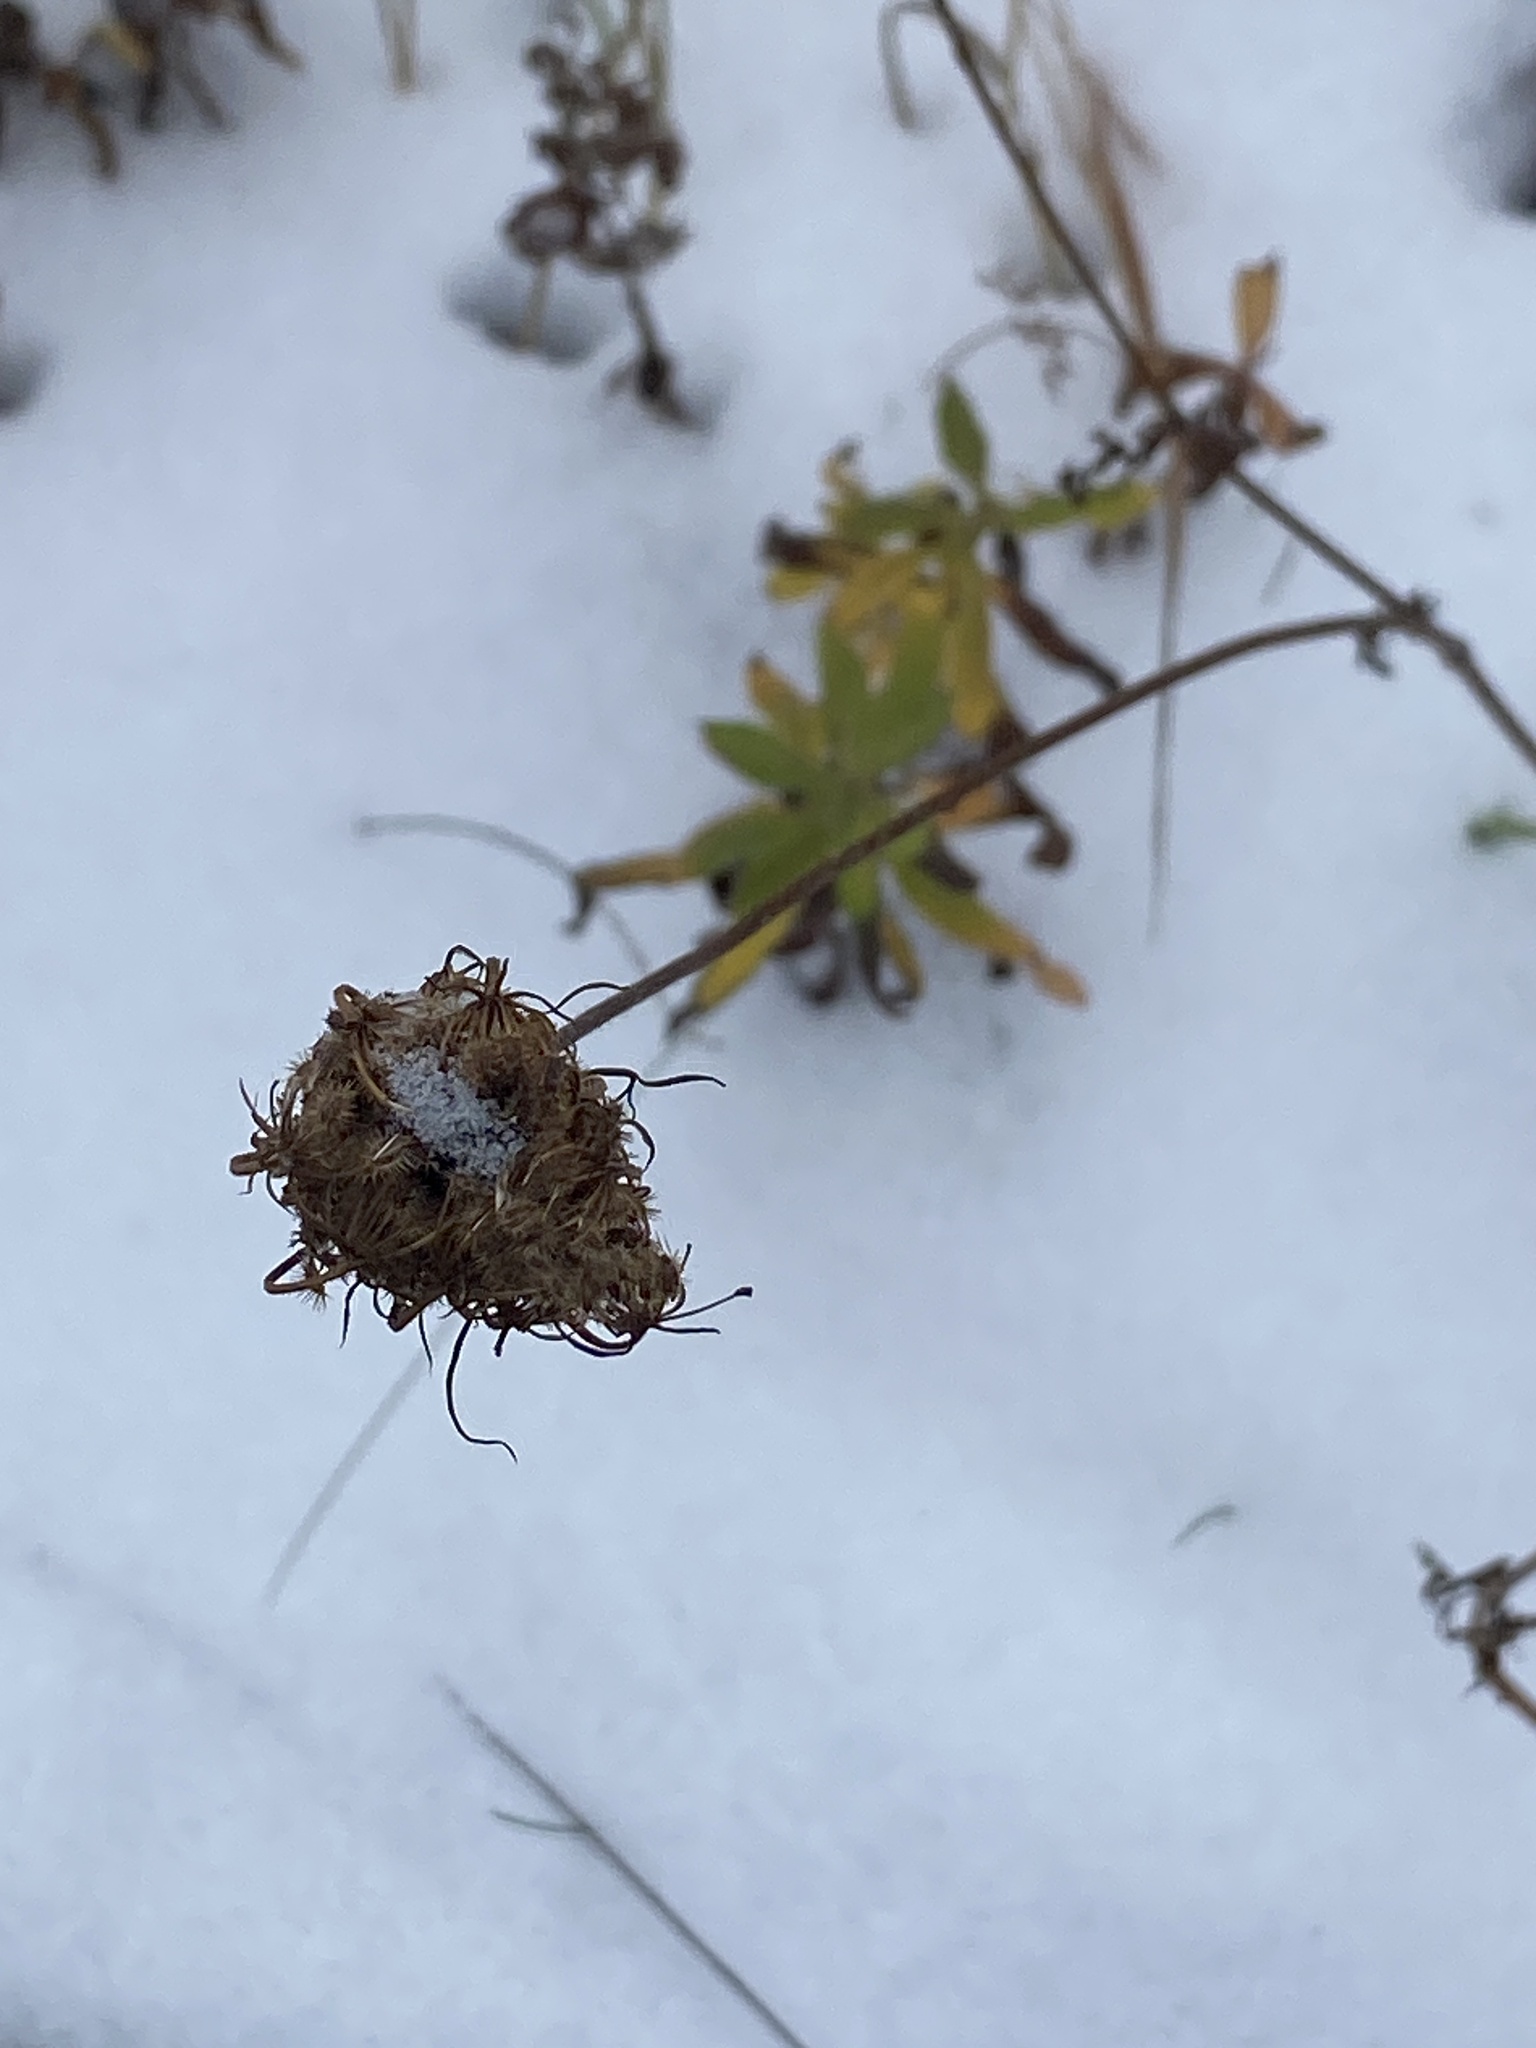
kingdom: Plantae
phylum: Tracheophyta
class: Magnoliopsida
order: Apiales
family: Apiaceae
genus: Daucus
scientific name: Daucus carota
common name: Wild carrot
